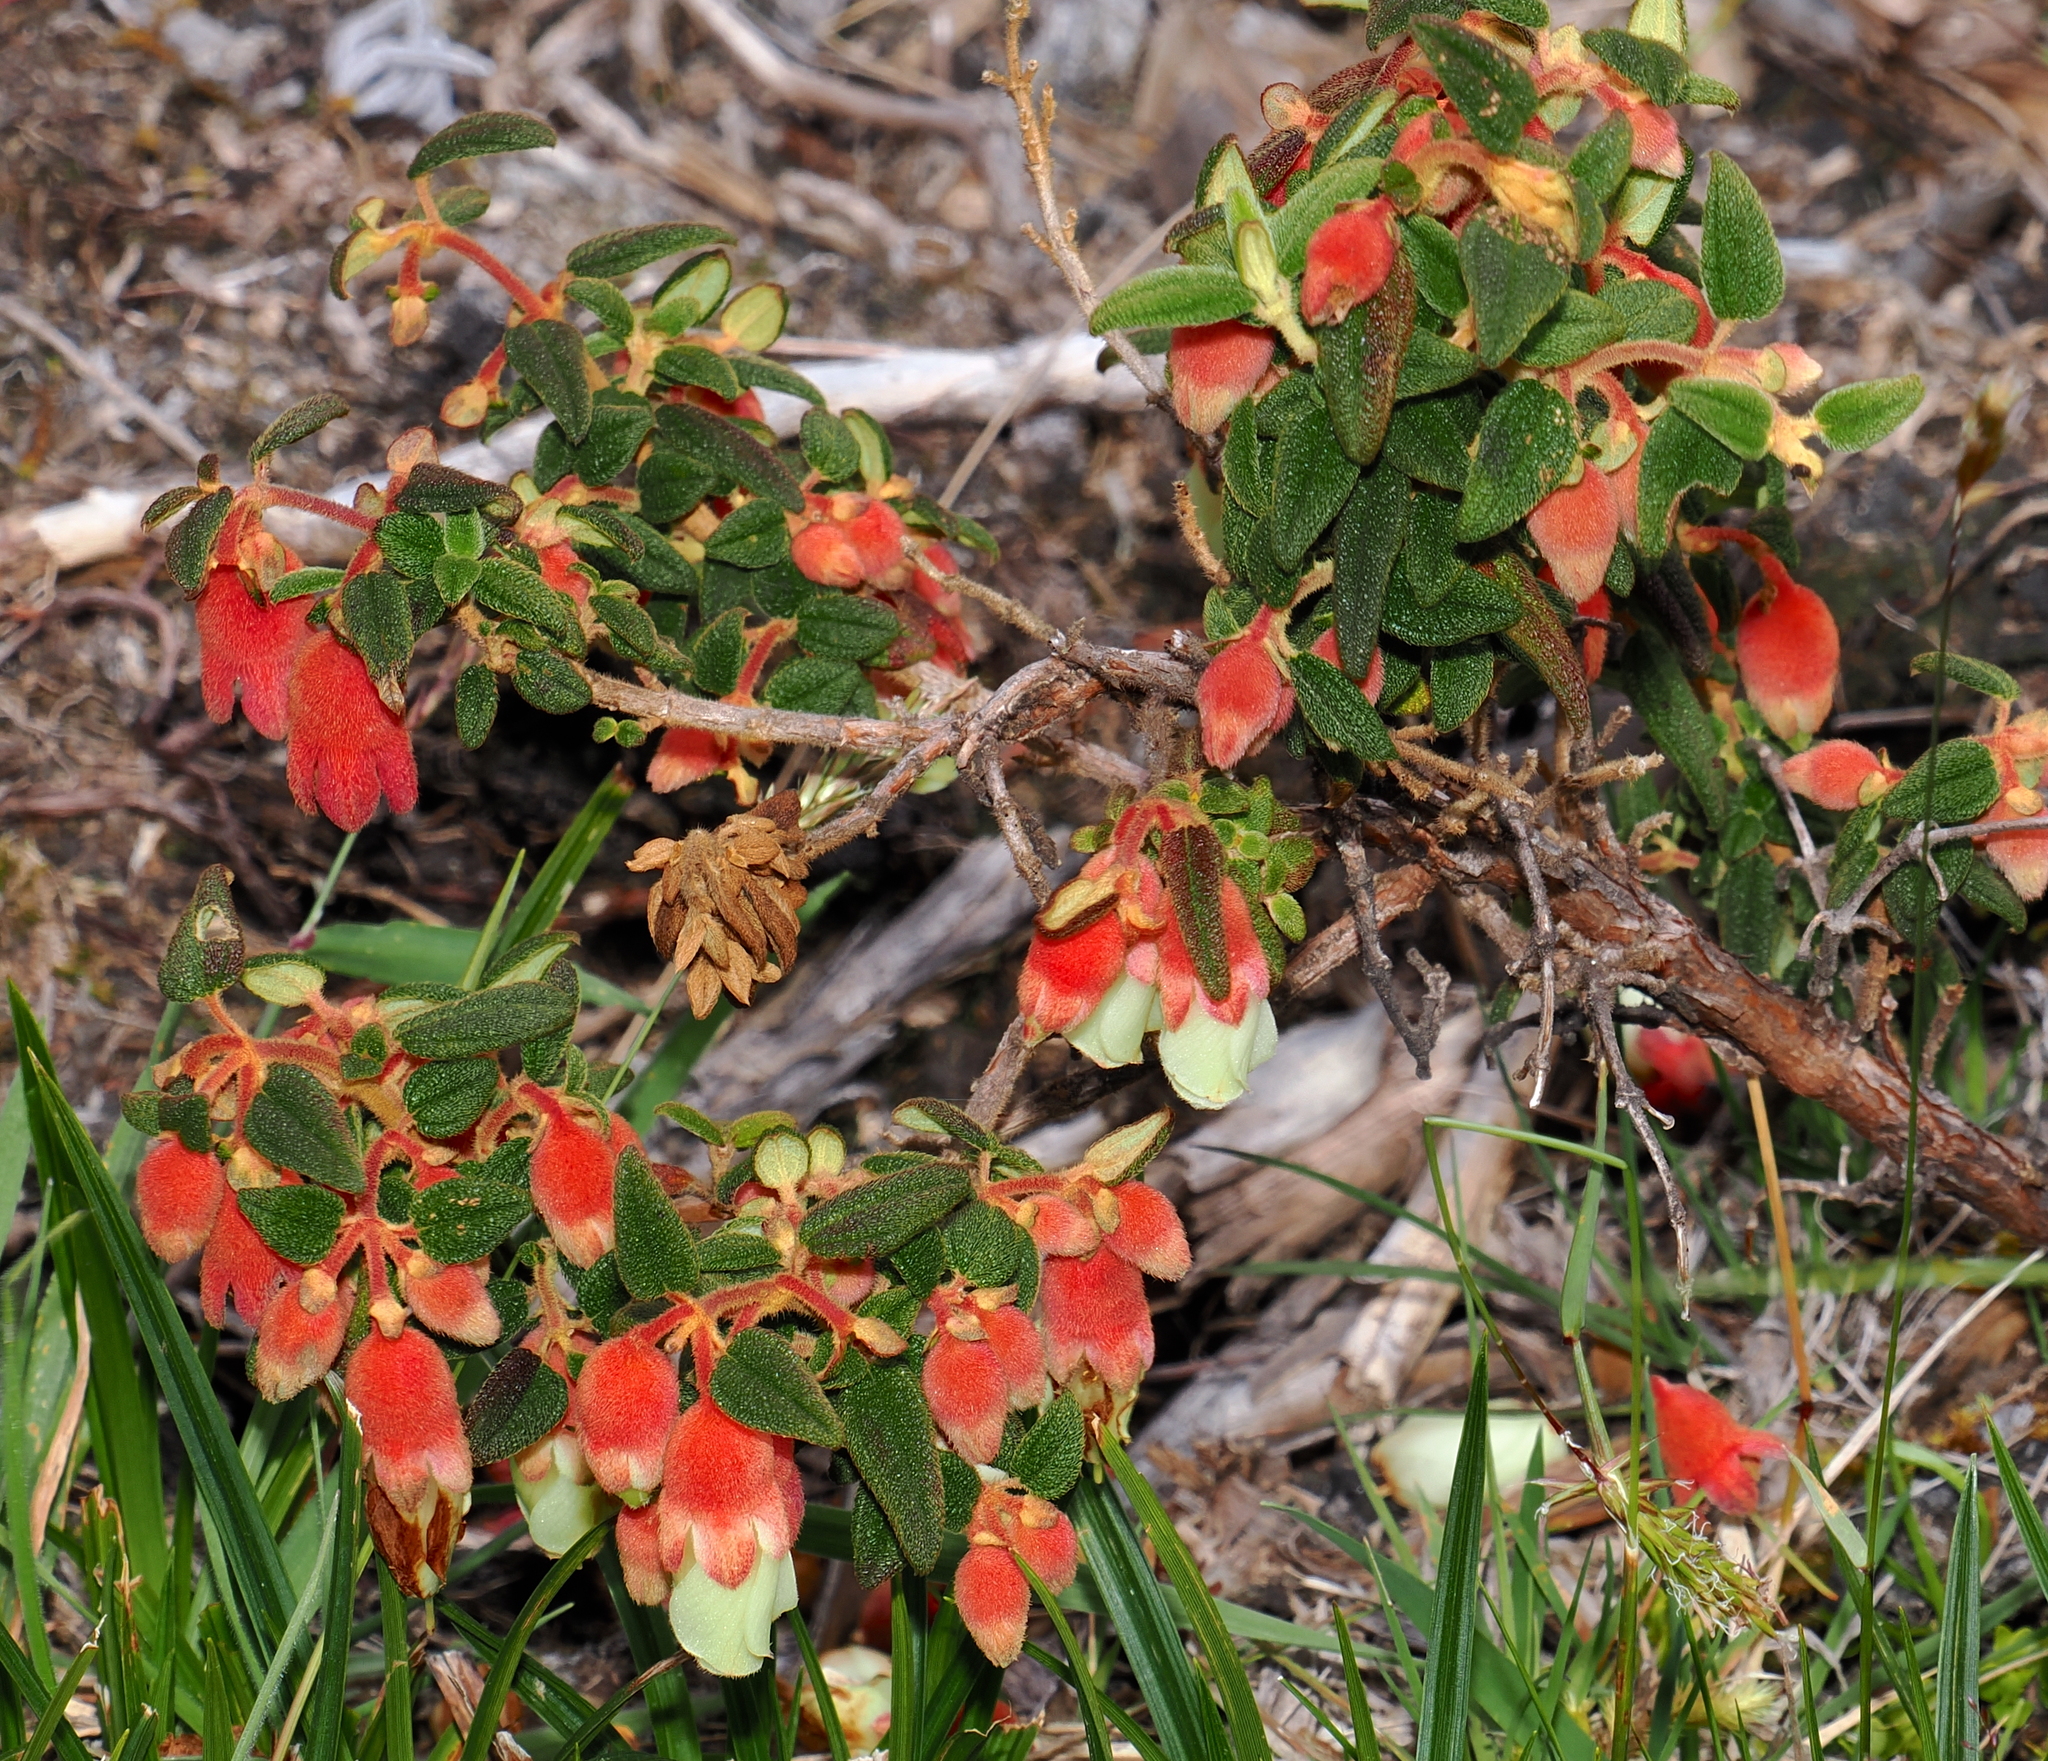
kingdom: Plantae
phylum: Tracheophyta
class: Magnoliopsida
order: Myrtales
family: Melastomataceae
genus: Brachyotum
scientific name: Brachyotum ledifolium
